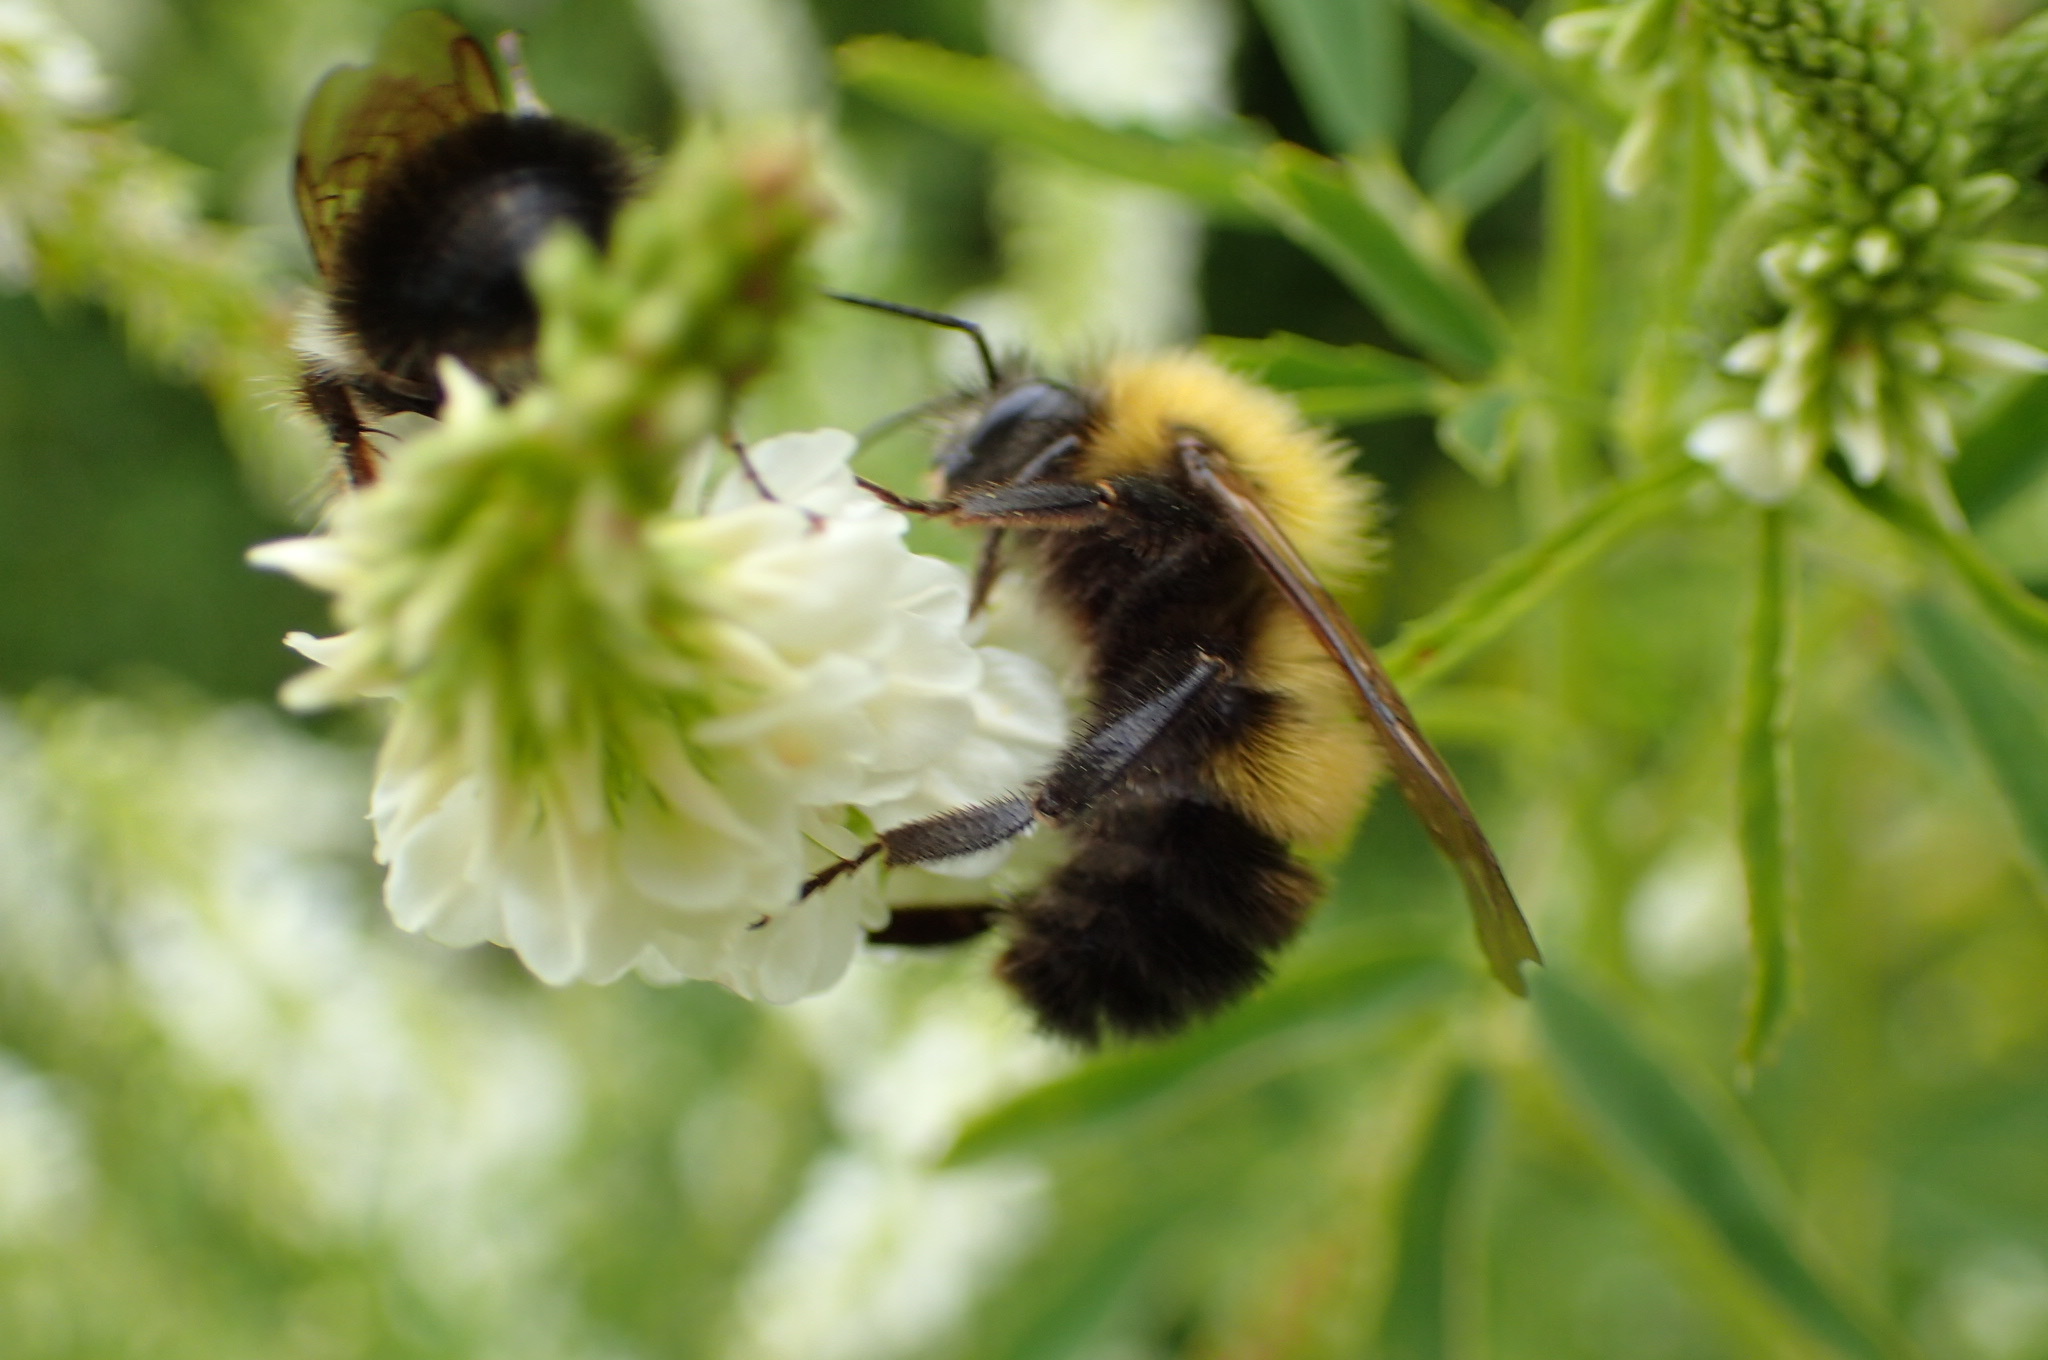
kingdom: Animalia
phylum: Arthropoda
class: Insecta
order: Hymenoptera
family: Apidae
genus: Bombus
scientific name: Bombus perplexus
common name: Confusing bumble bee
